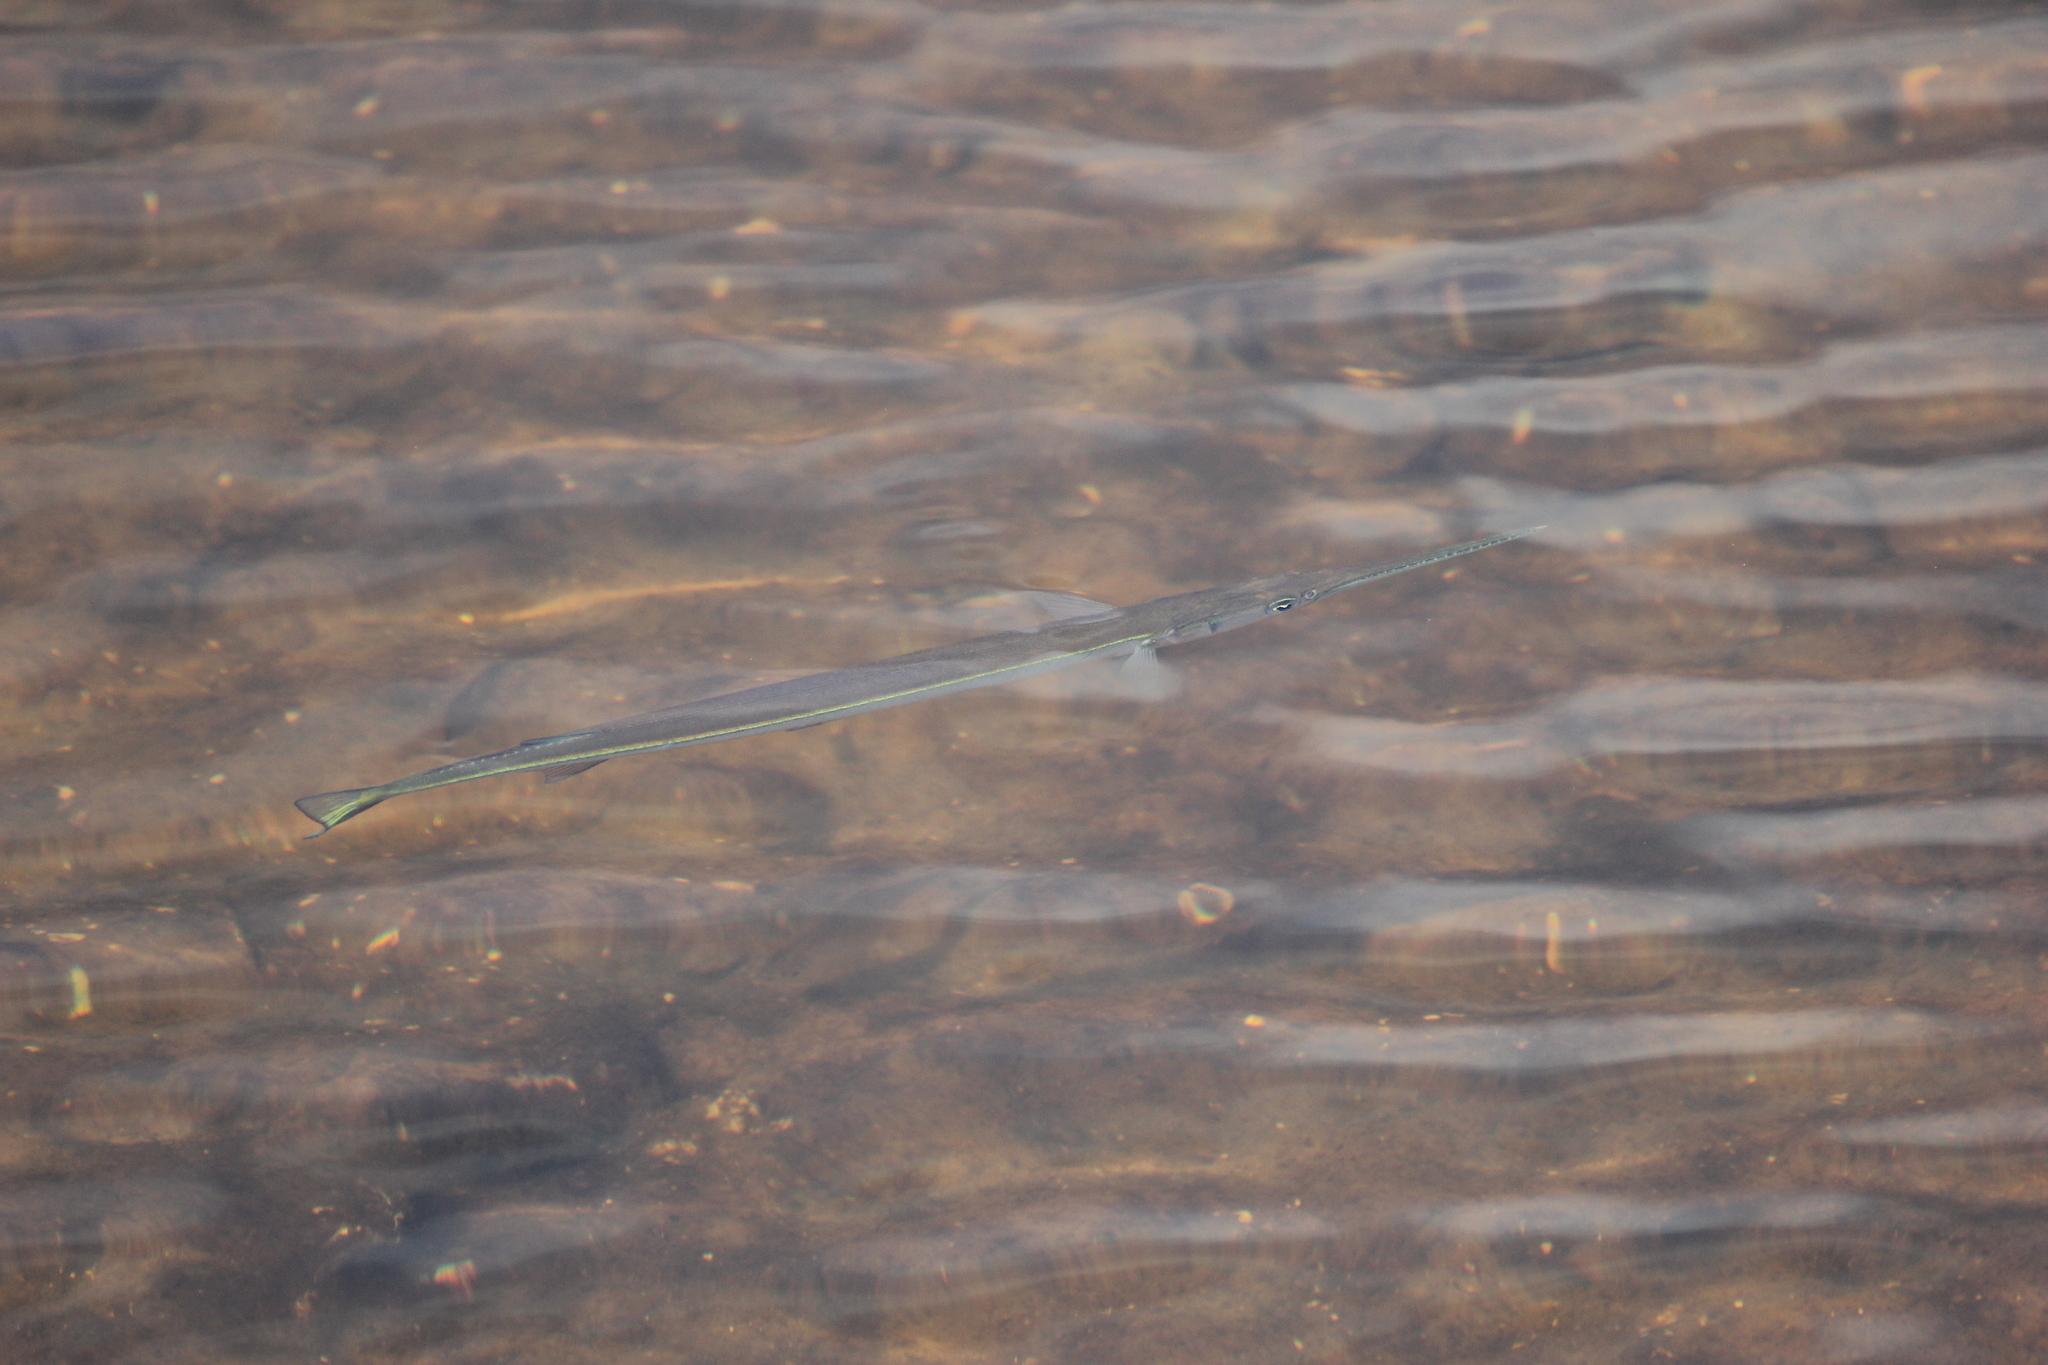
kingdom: Animalia
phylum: Chordata
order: Beloniformes
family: Belonidae
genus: Strongylura
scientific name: Strongylura marina
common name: Atlantic needlefish
